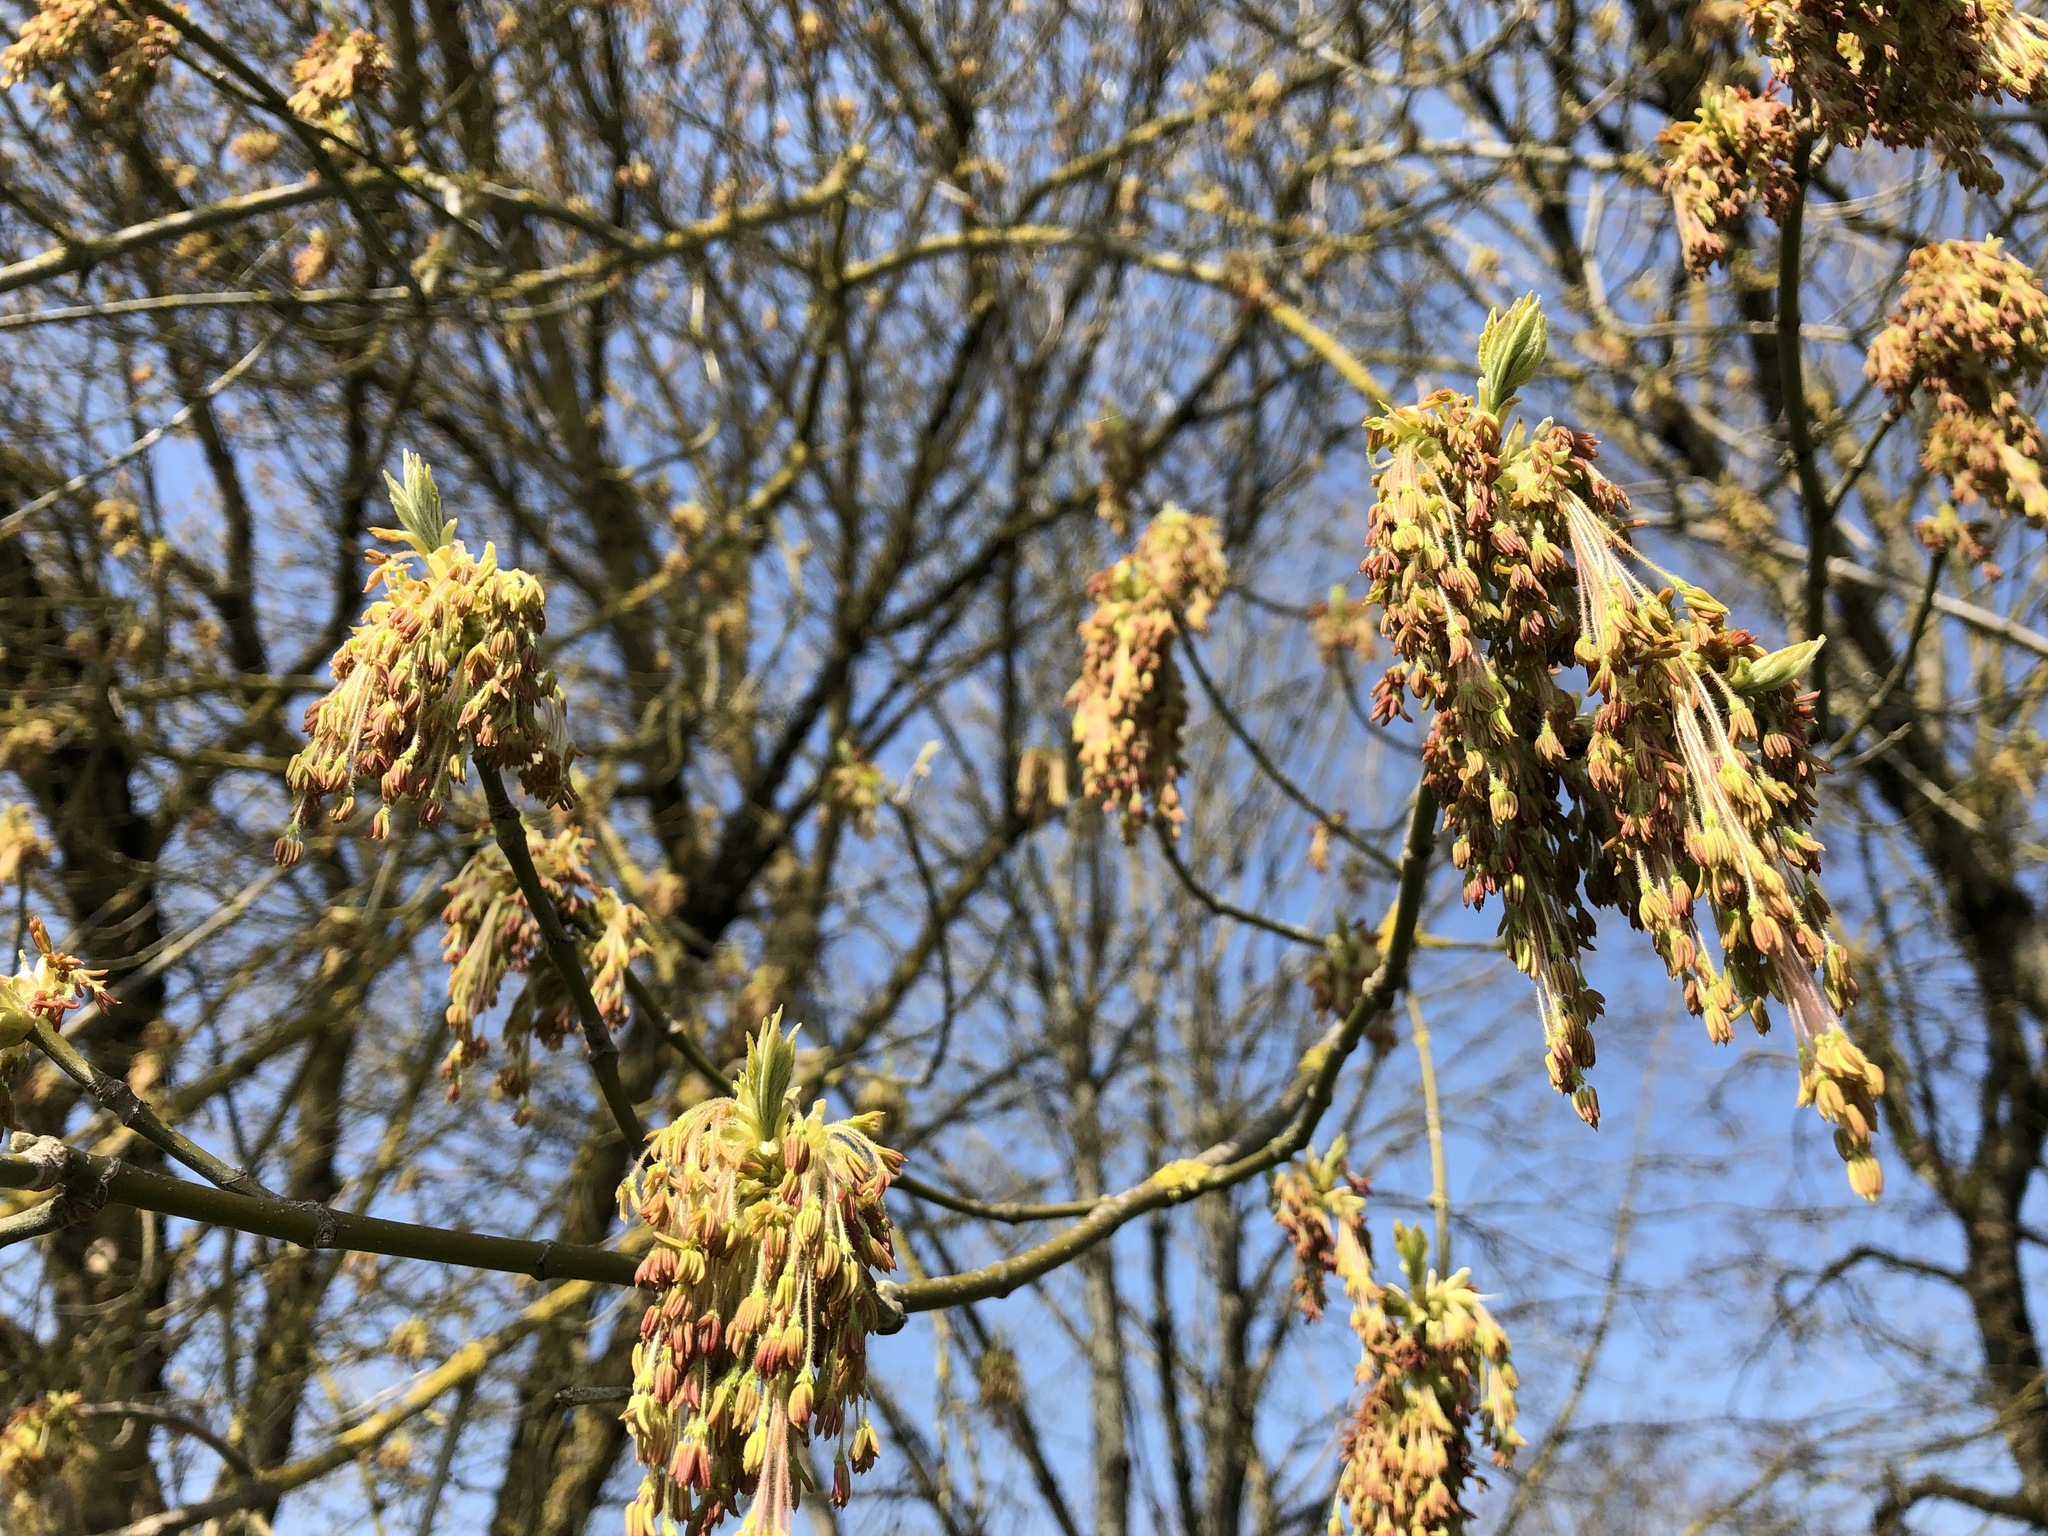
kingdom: Plantae
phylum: Tracheophyta
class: Magnoliopsida
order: Sapindales
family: Sapindaceae
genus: Acer
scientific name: Acer negundo
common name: Ashleaf maple
